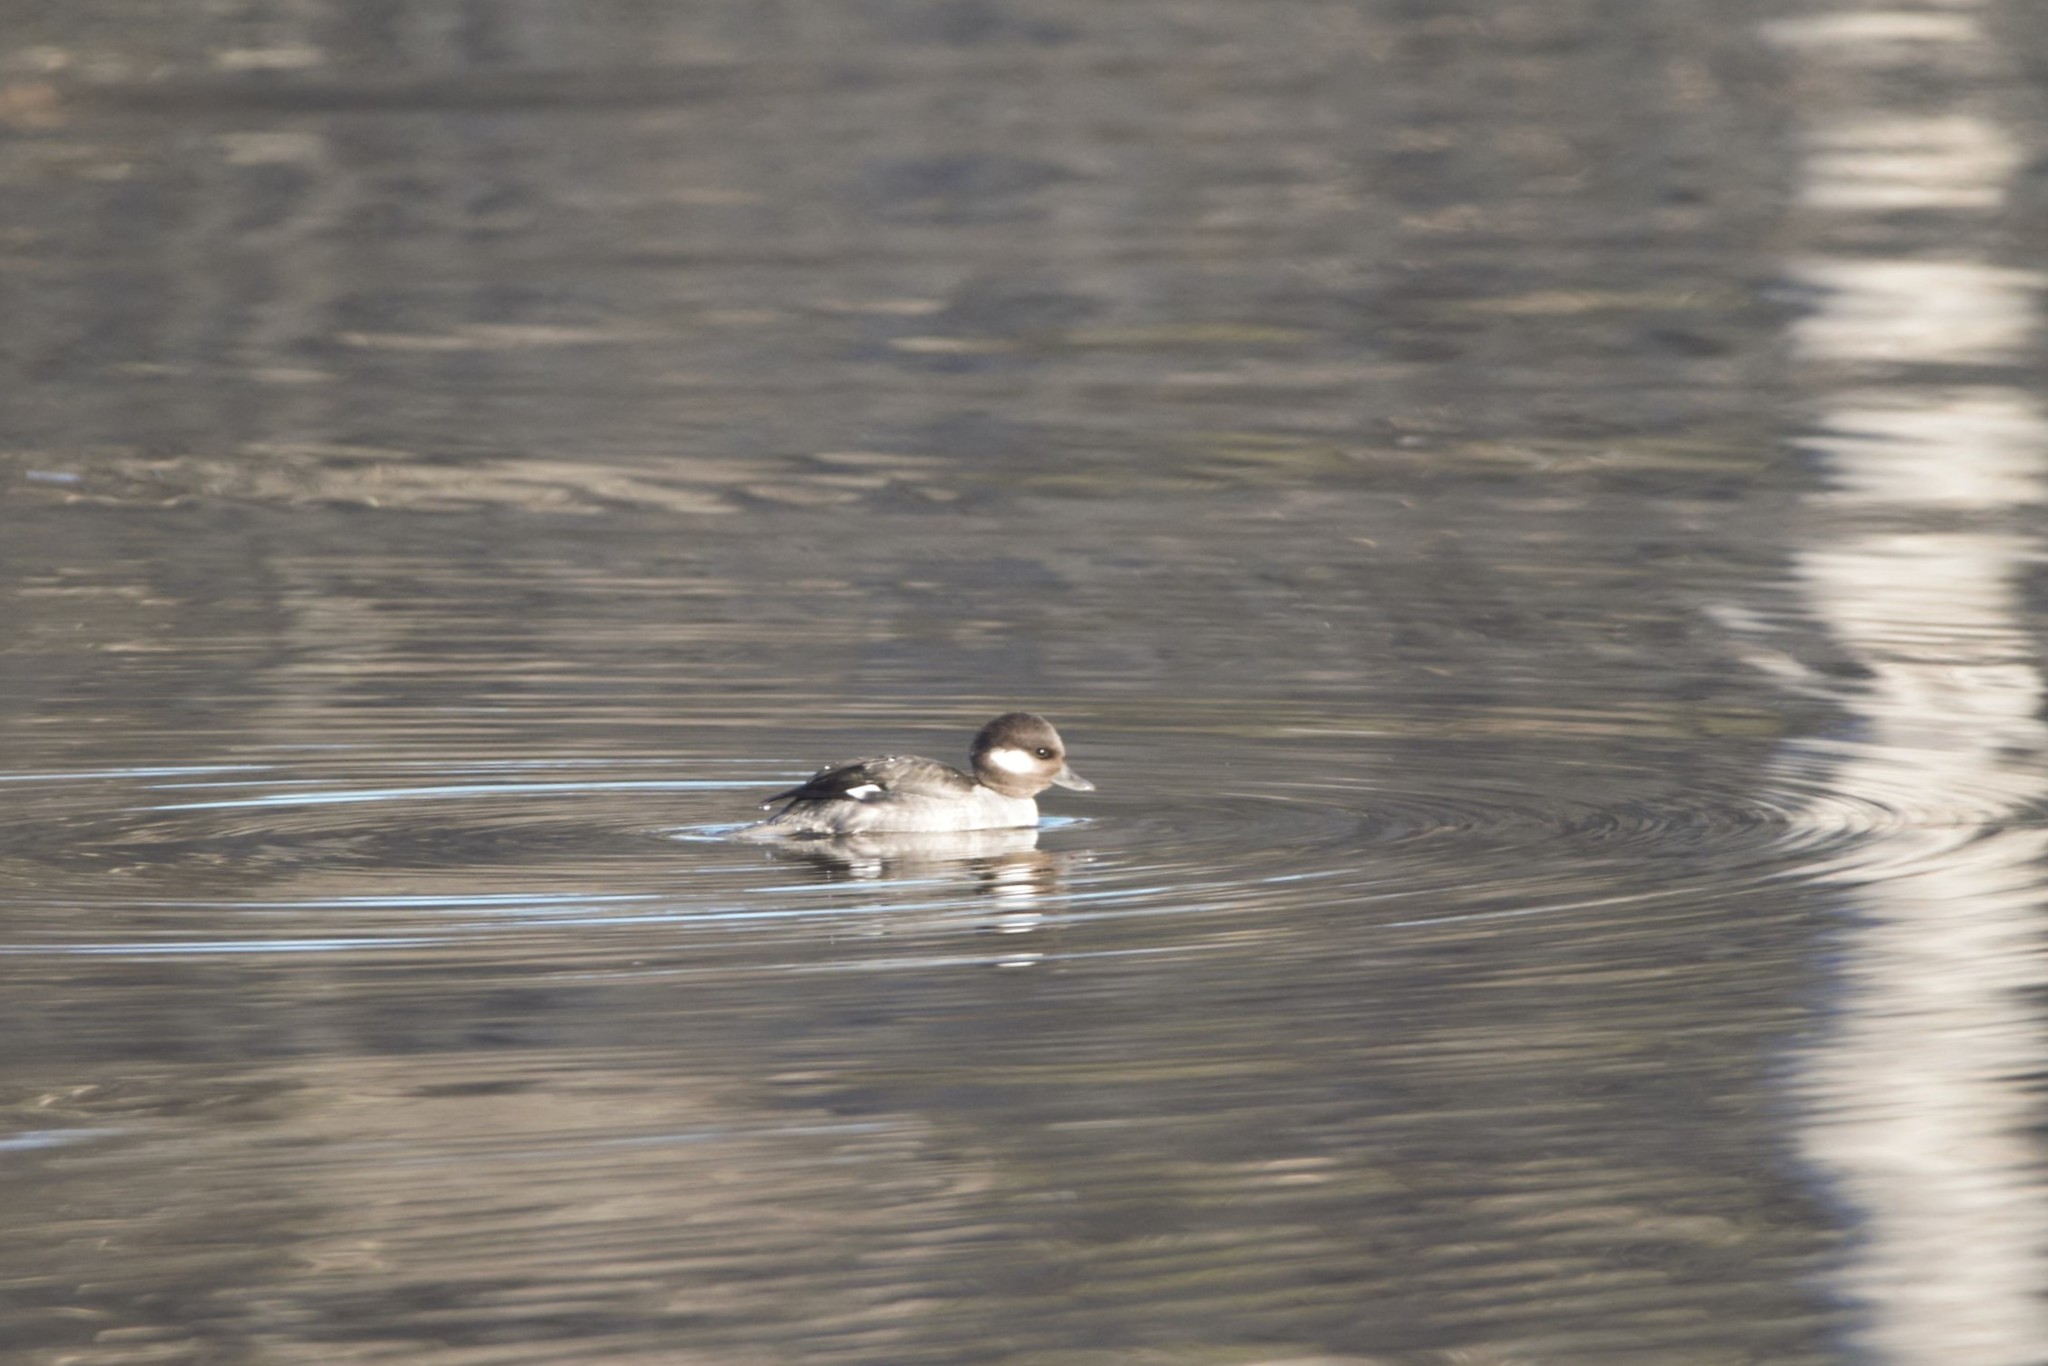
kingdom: Animalia
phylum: Chordata
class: Aves
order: Anseriformes
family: Anatidae
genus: Bucephala
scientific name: Bucephala albeola
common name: Bufflehead
